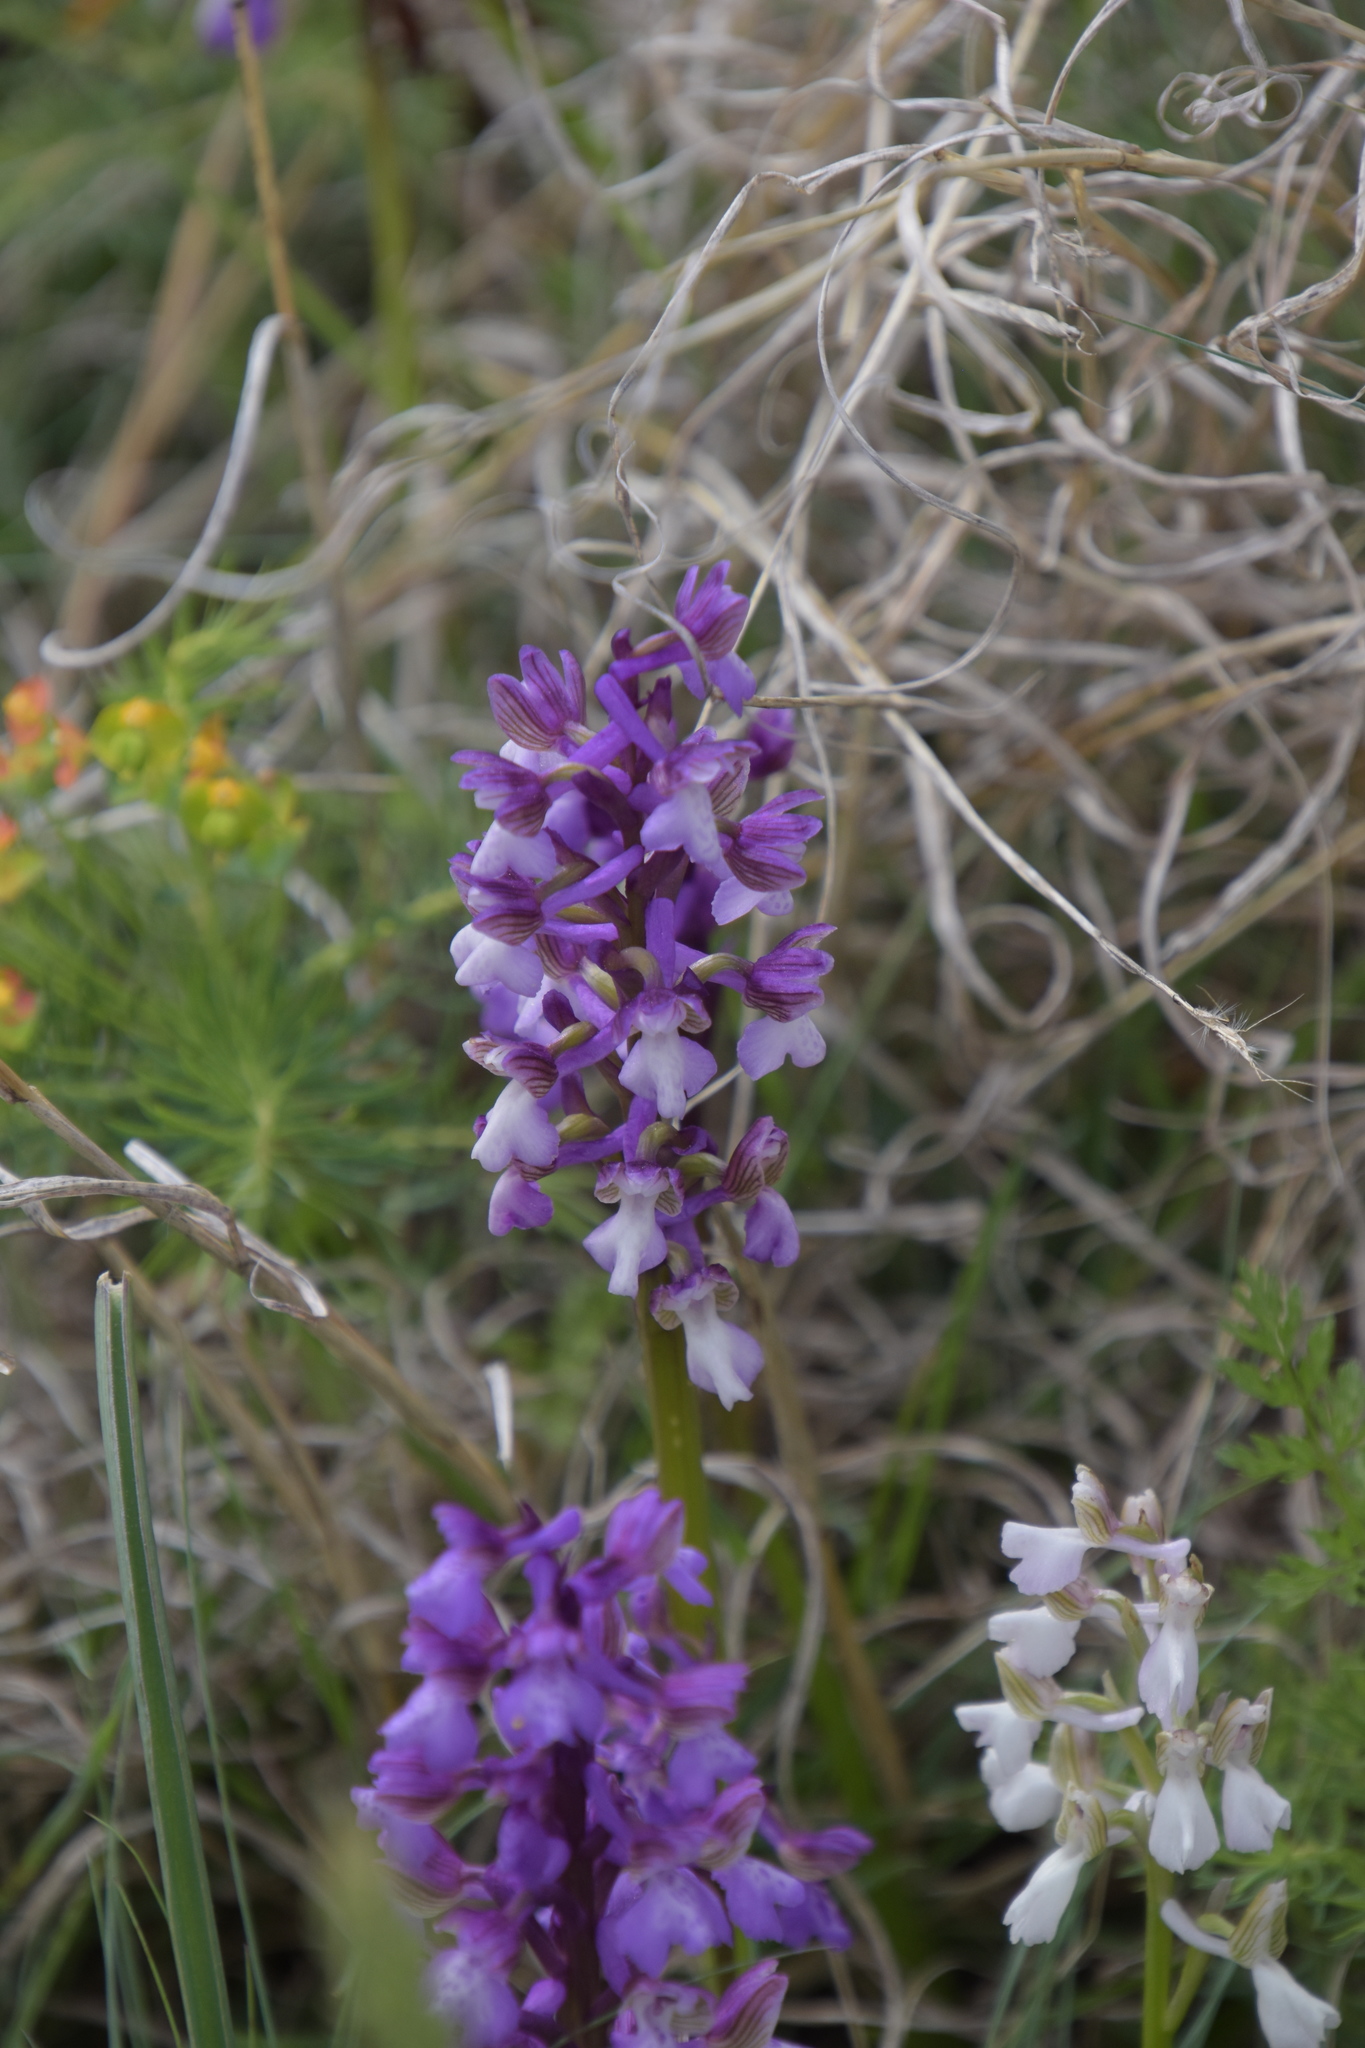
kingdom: Plantae
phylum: Tracheophyta
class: Liliopsida
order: Asparagales
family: Orchidaceae
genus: Anacamptis
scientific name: Anacamptis morio
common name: Green-winged orchid
